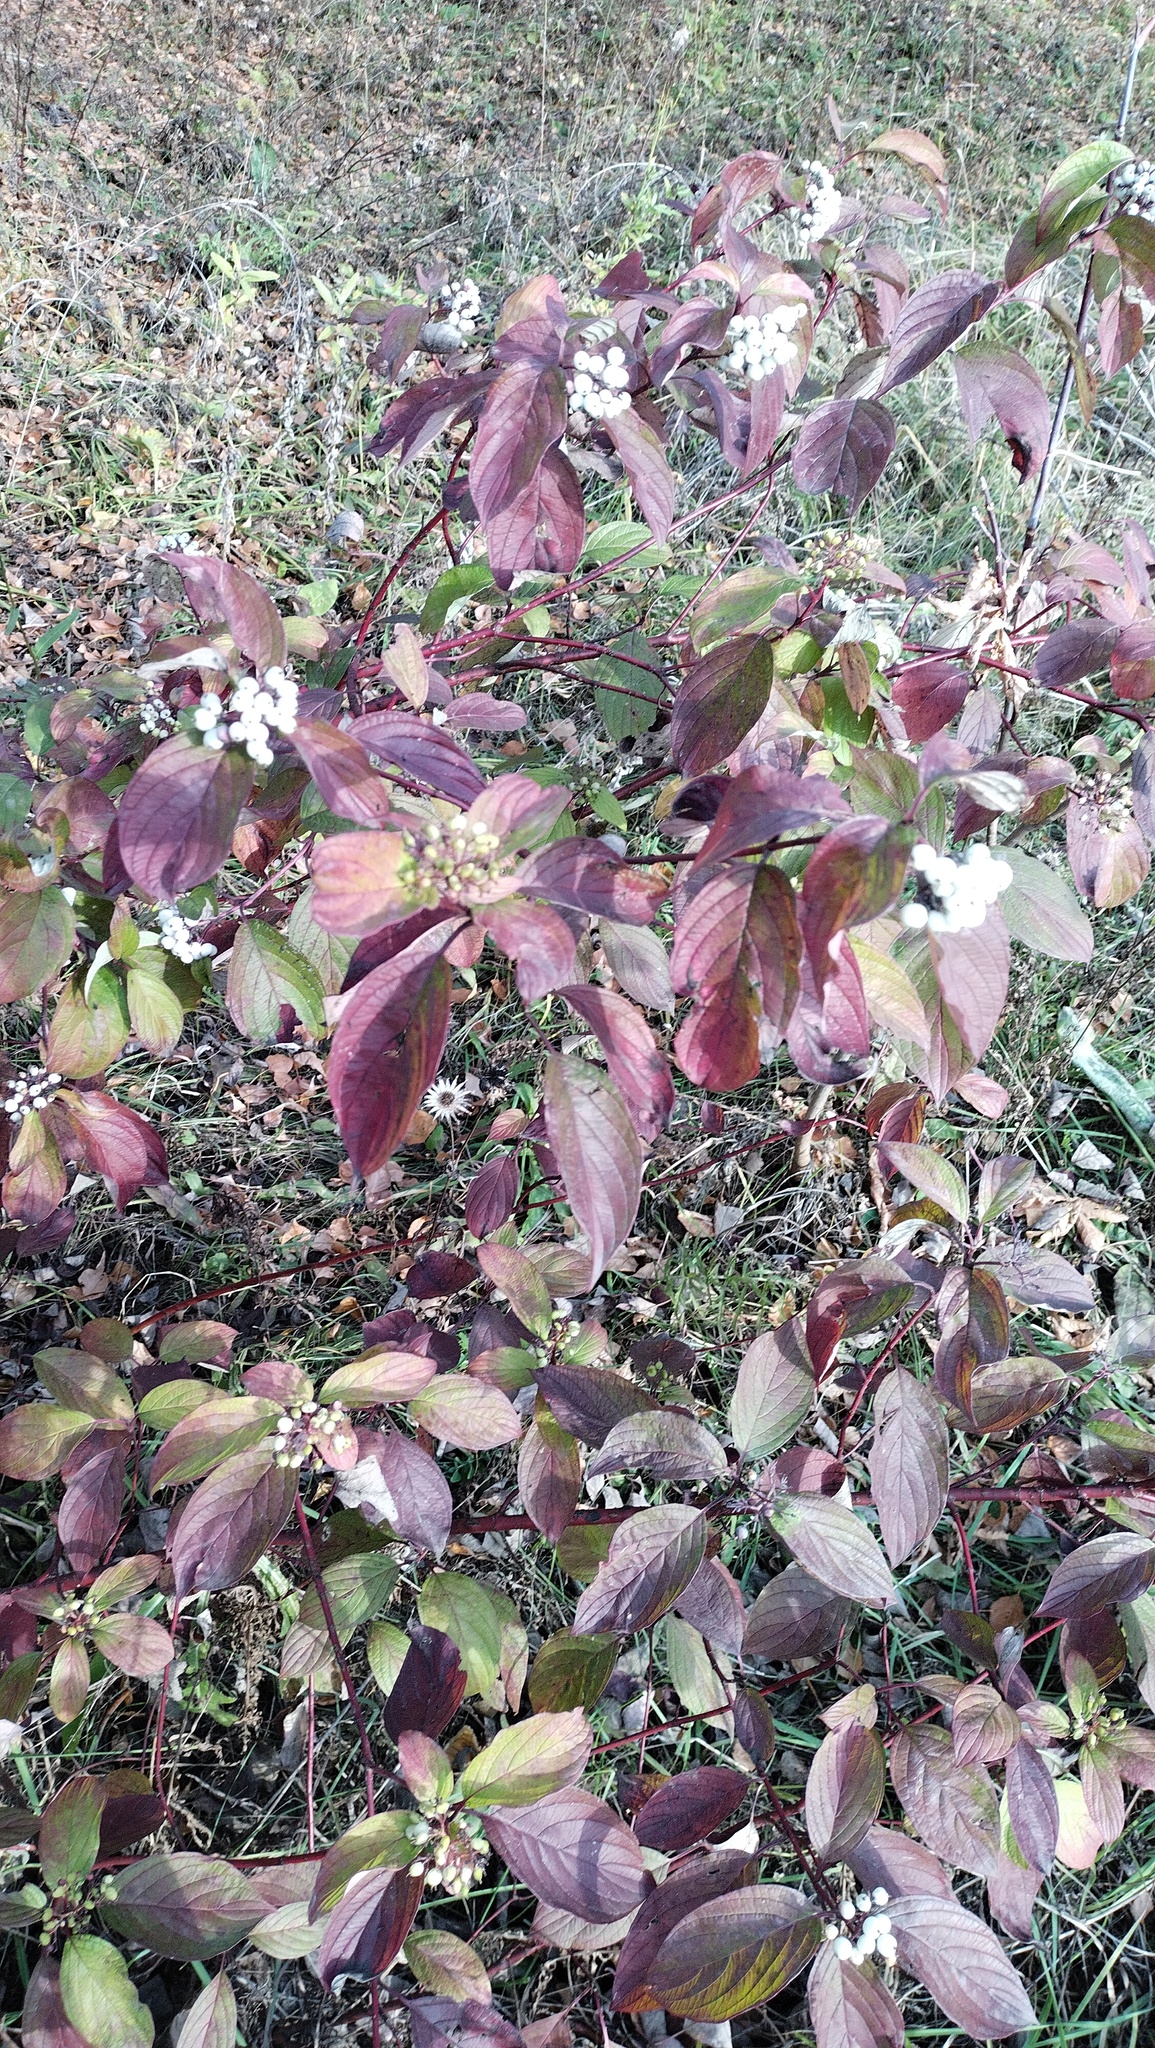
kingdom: Plantae
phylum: Tracheophyta
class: Magnoliopsida
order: Cornales
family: Cornaceae
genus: Cornus
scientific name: Cornus alba
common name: White dogwood
